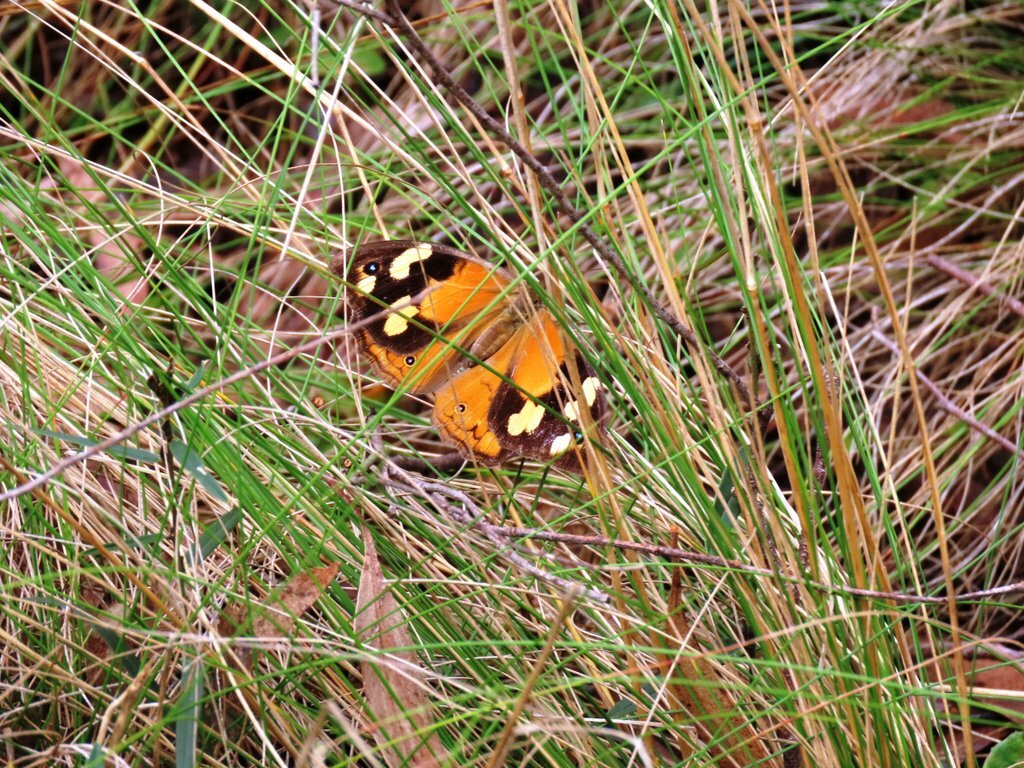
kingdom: Animalia
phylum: Arthropoda
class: Insecta
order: Lepidoptera
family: Nymphalidae
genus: Heteronympha
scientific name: Heteronympha merope
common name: Common brown
